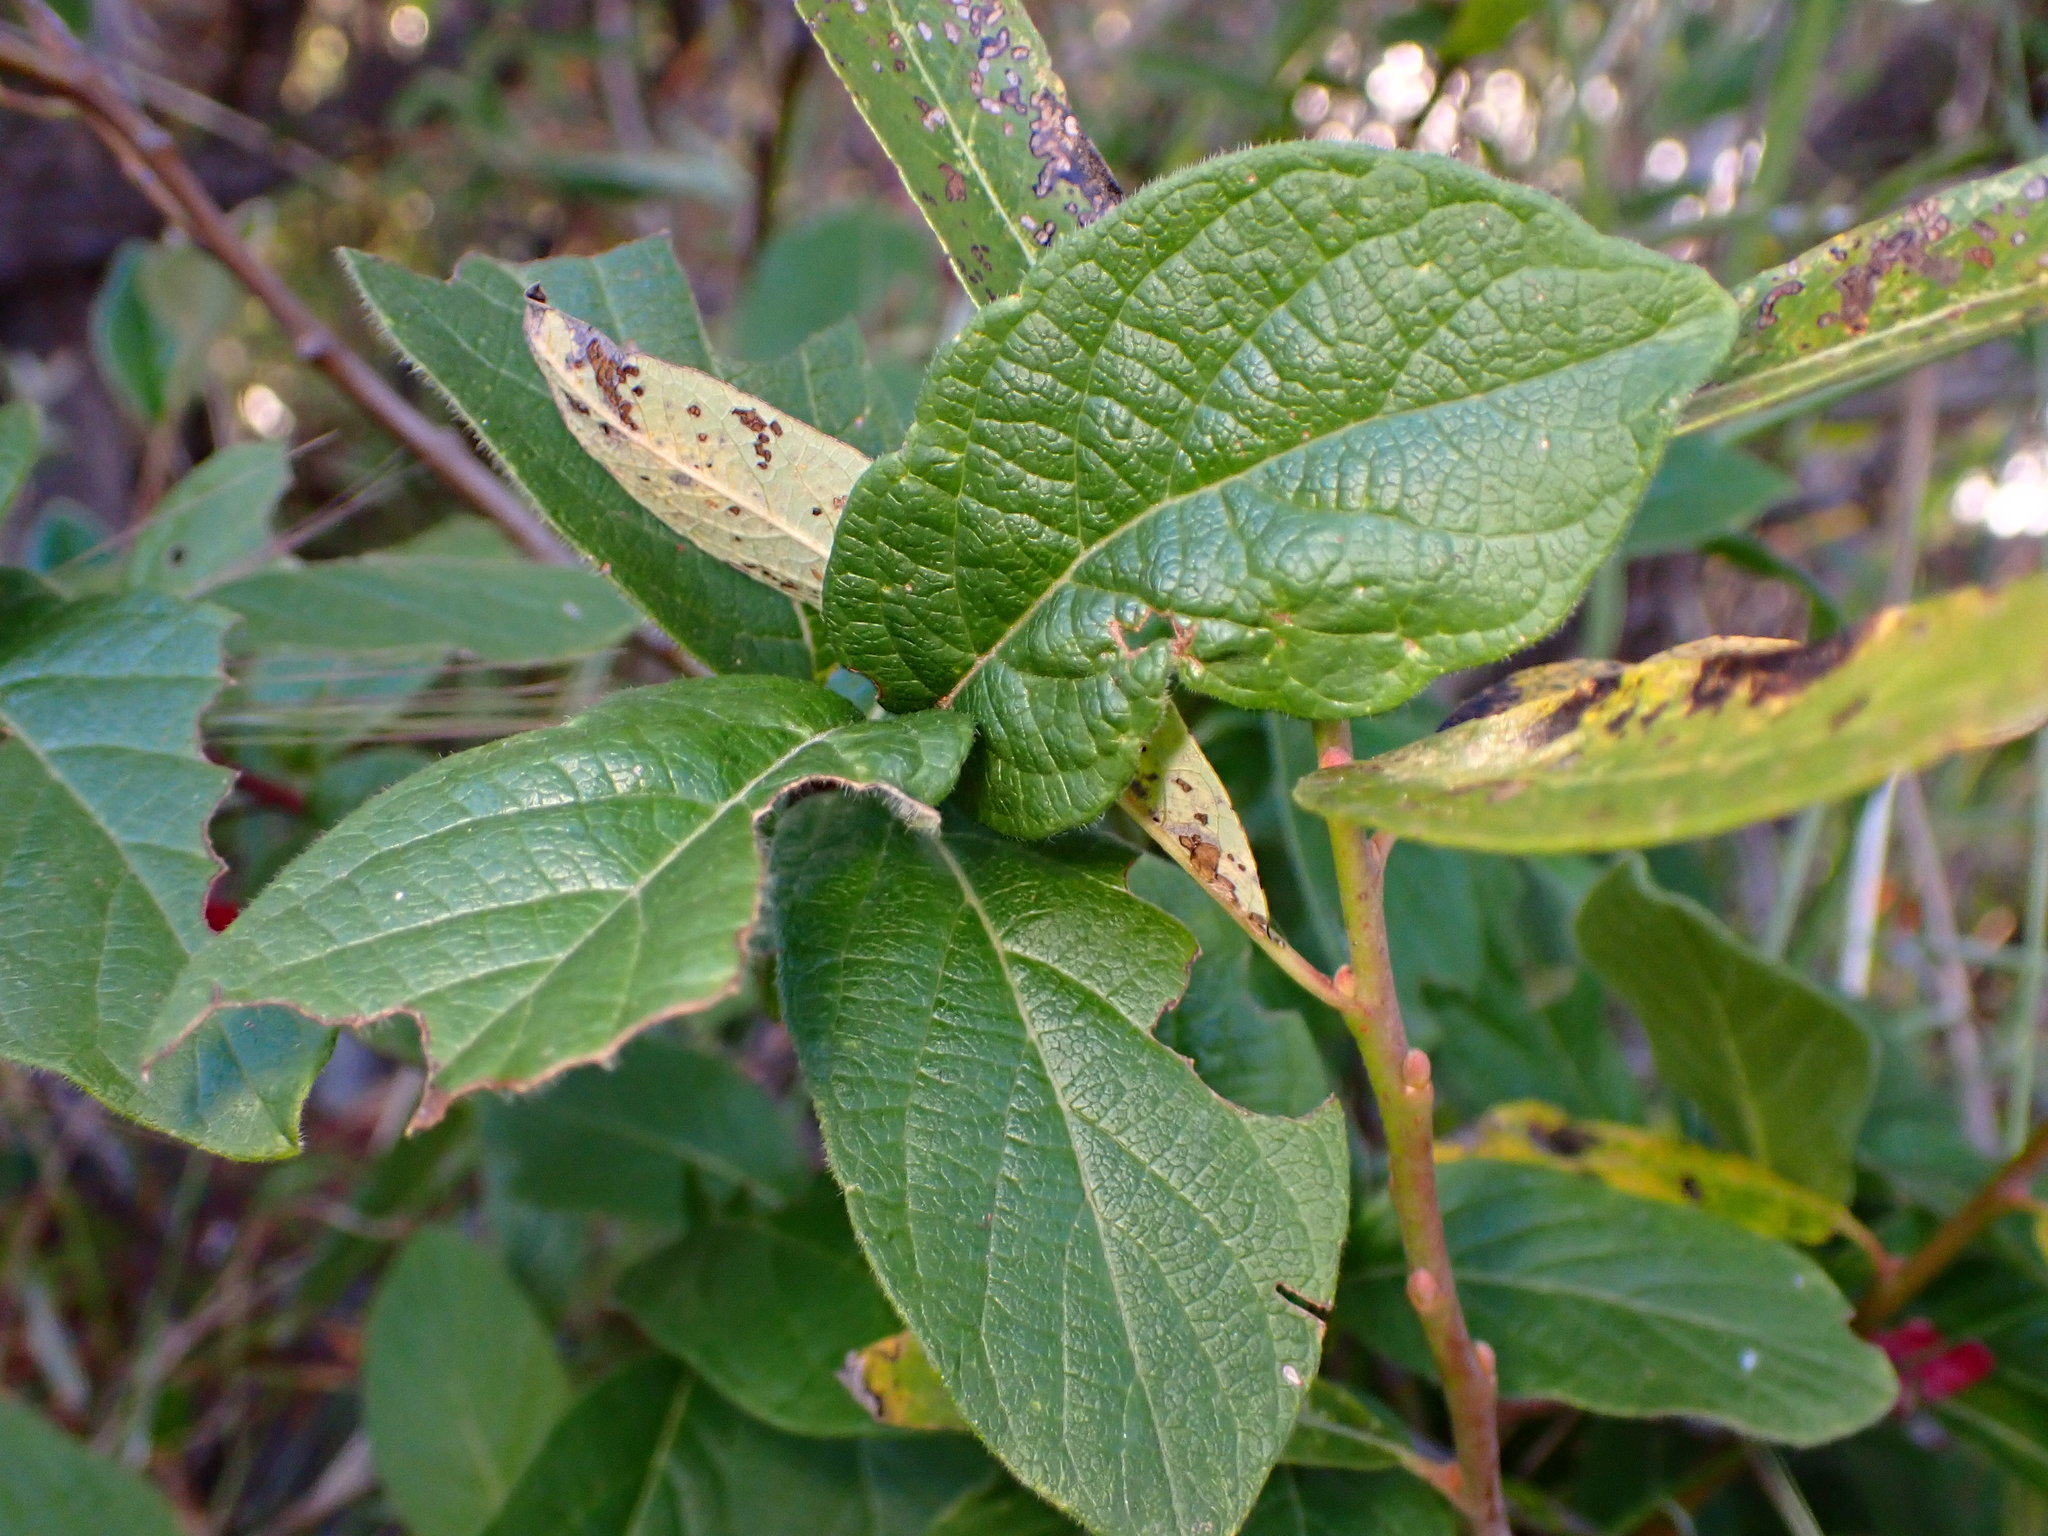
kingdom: Plantae
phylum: Tracheophyta
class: Magnoliopsida
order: Dipsacales
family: Caprifoliaceae
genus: Lonicera
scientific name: Lonicera involucrata
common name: Californian honeysuckle
